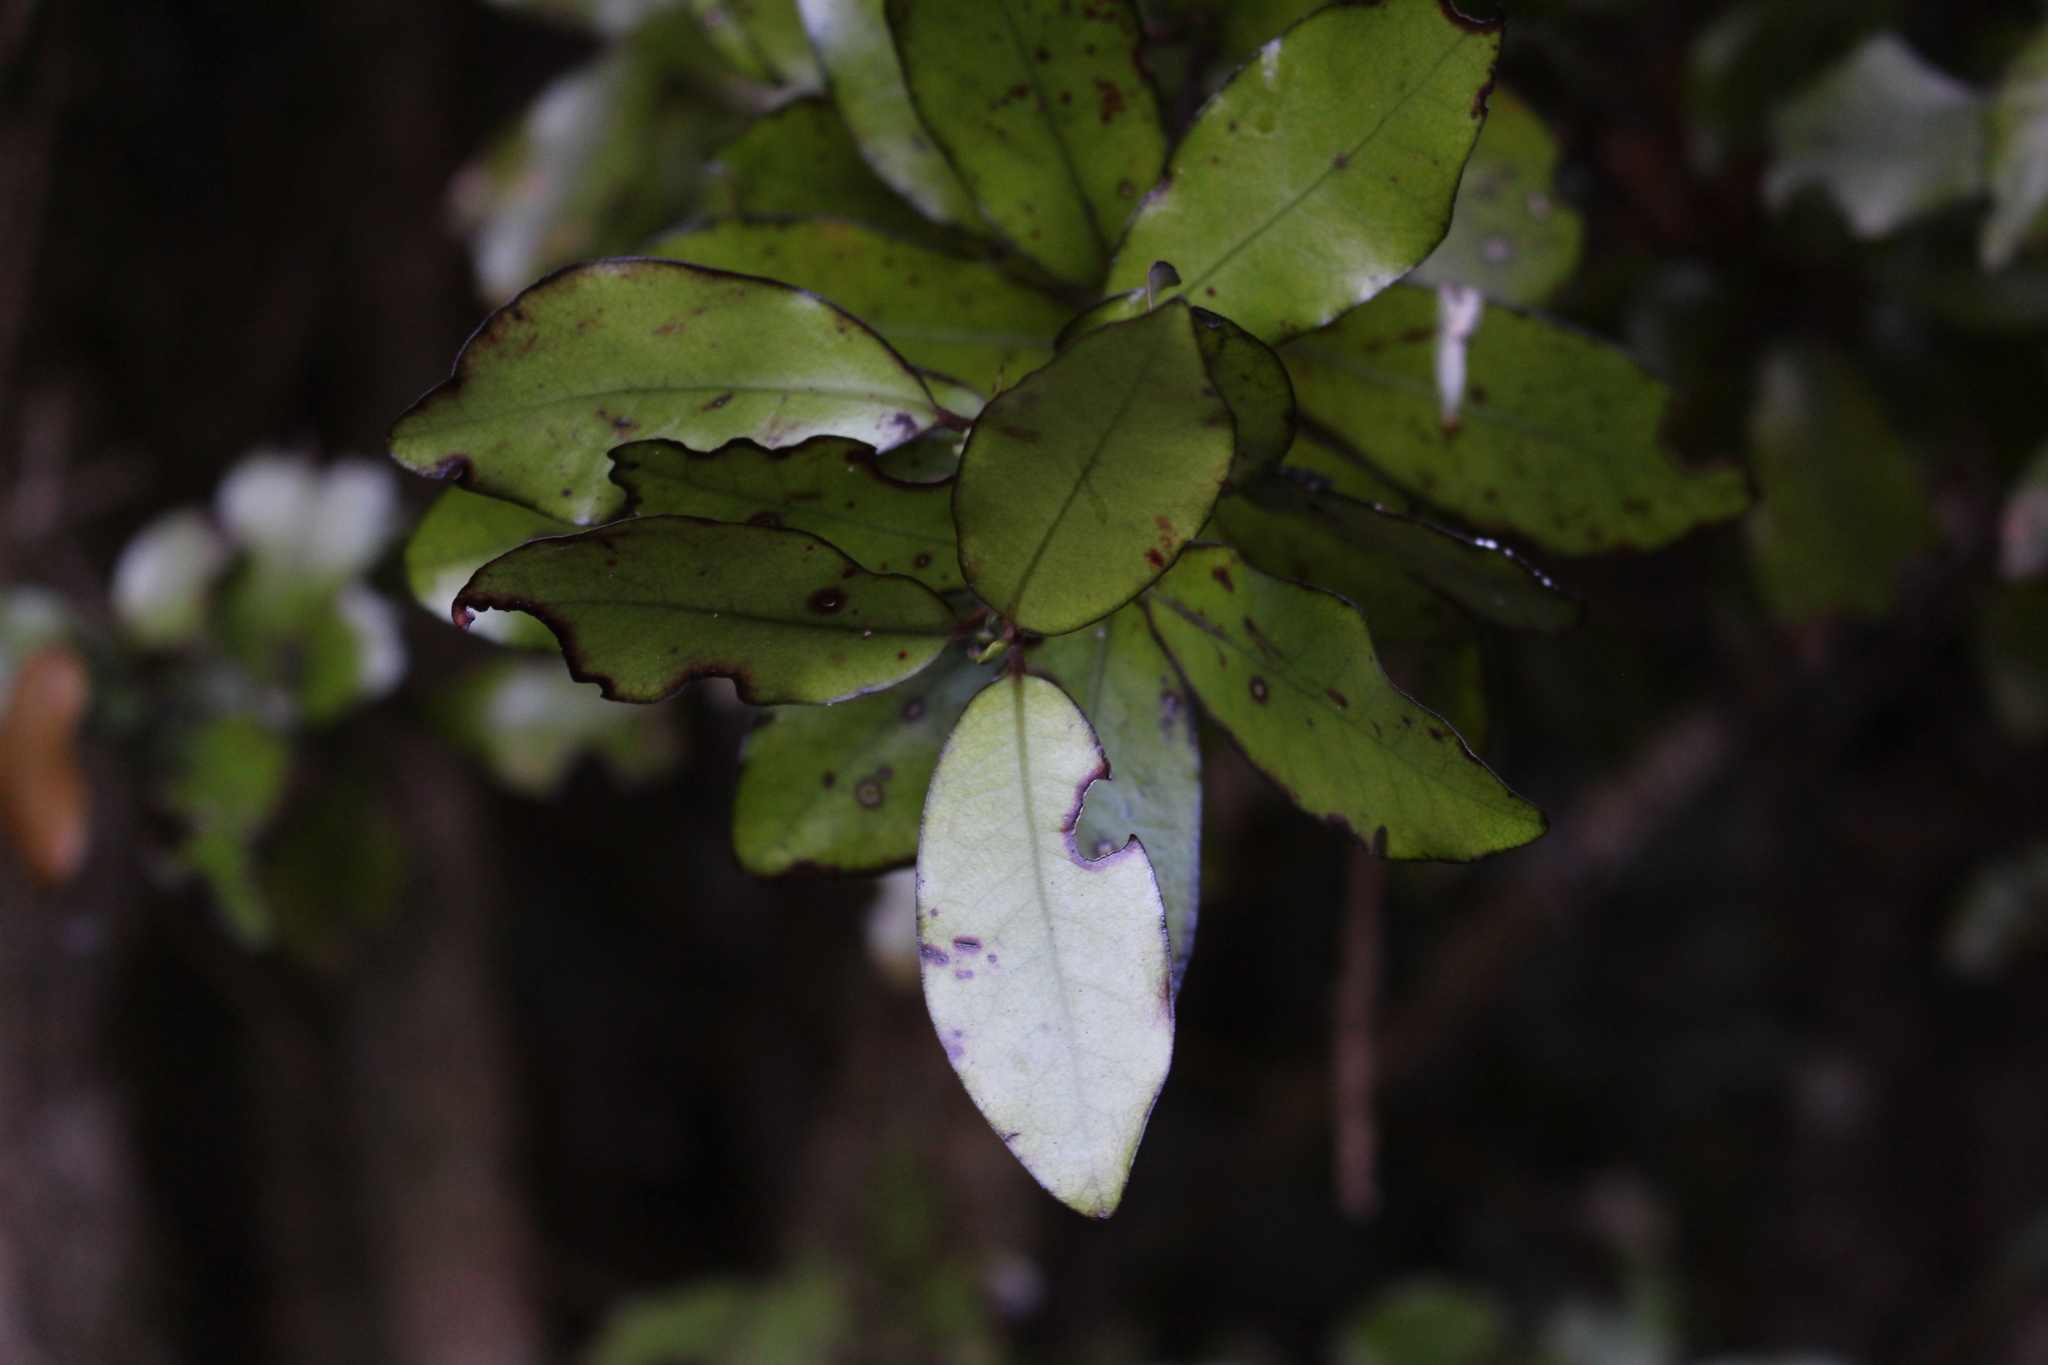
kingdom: Plantae
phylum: Tracheophyta
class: Magnoliopsida
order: Canellales
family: Winteraceae
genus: Pseudowintera
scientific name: Pseudowintera colorata
